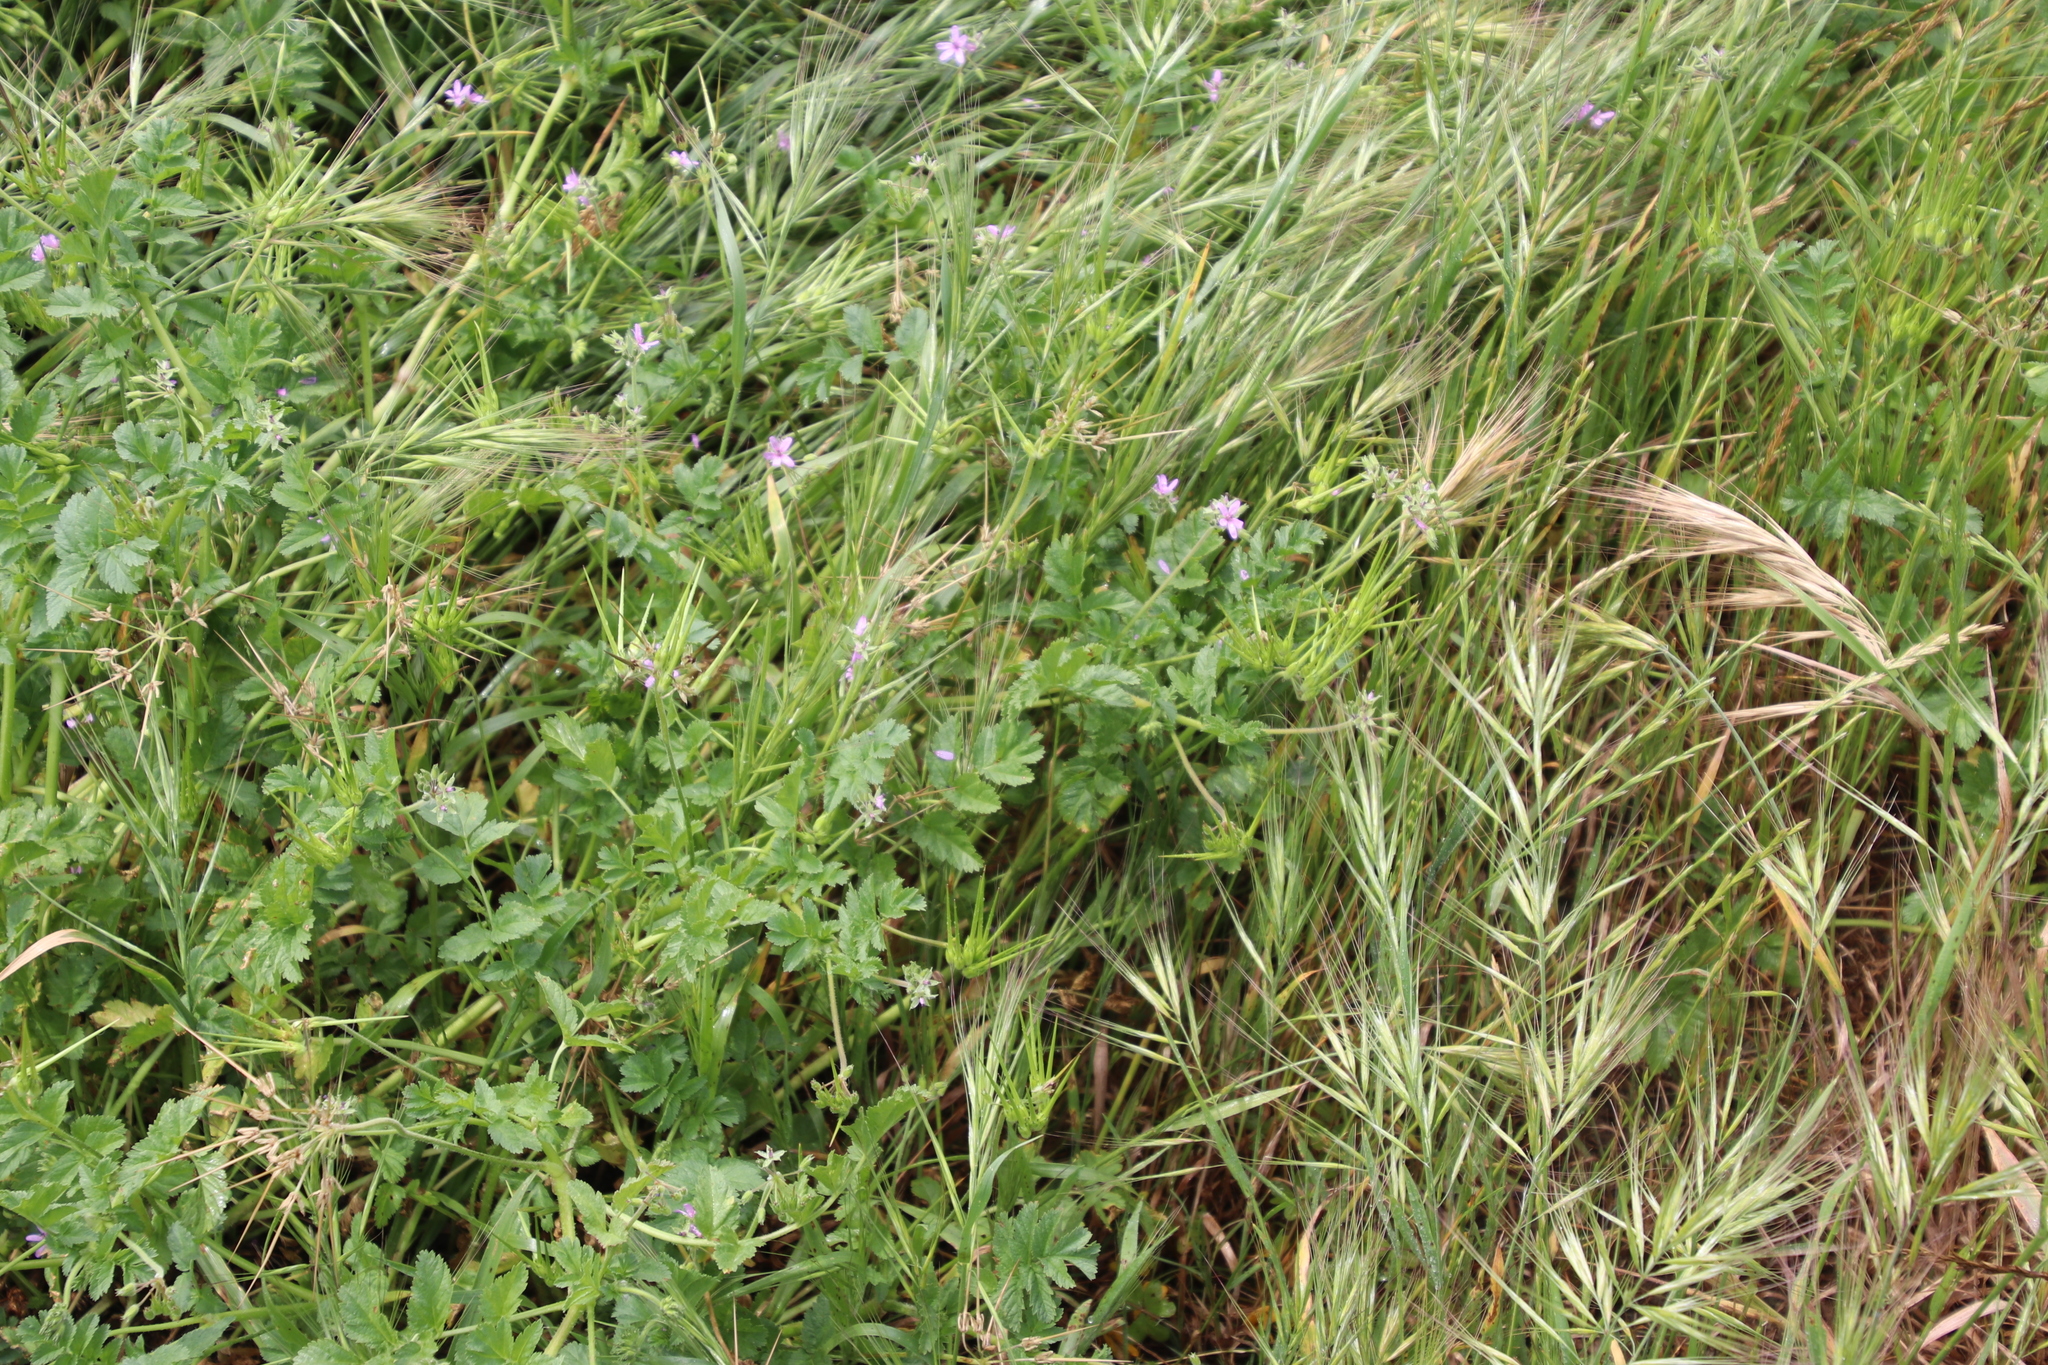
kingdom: Plantae
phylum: Tracheophyta
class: Magnoliopsida
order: Geraniales
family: Geraniaceae
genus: Erodium
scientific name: Erodium moschatum
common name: Musk stork's-bill
